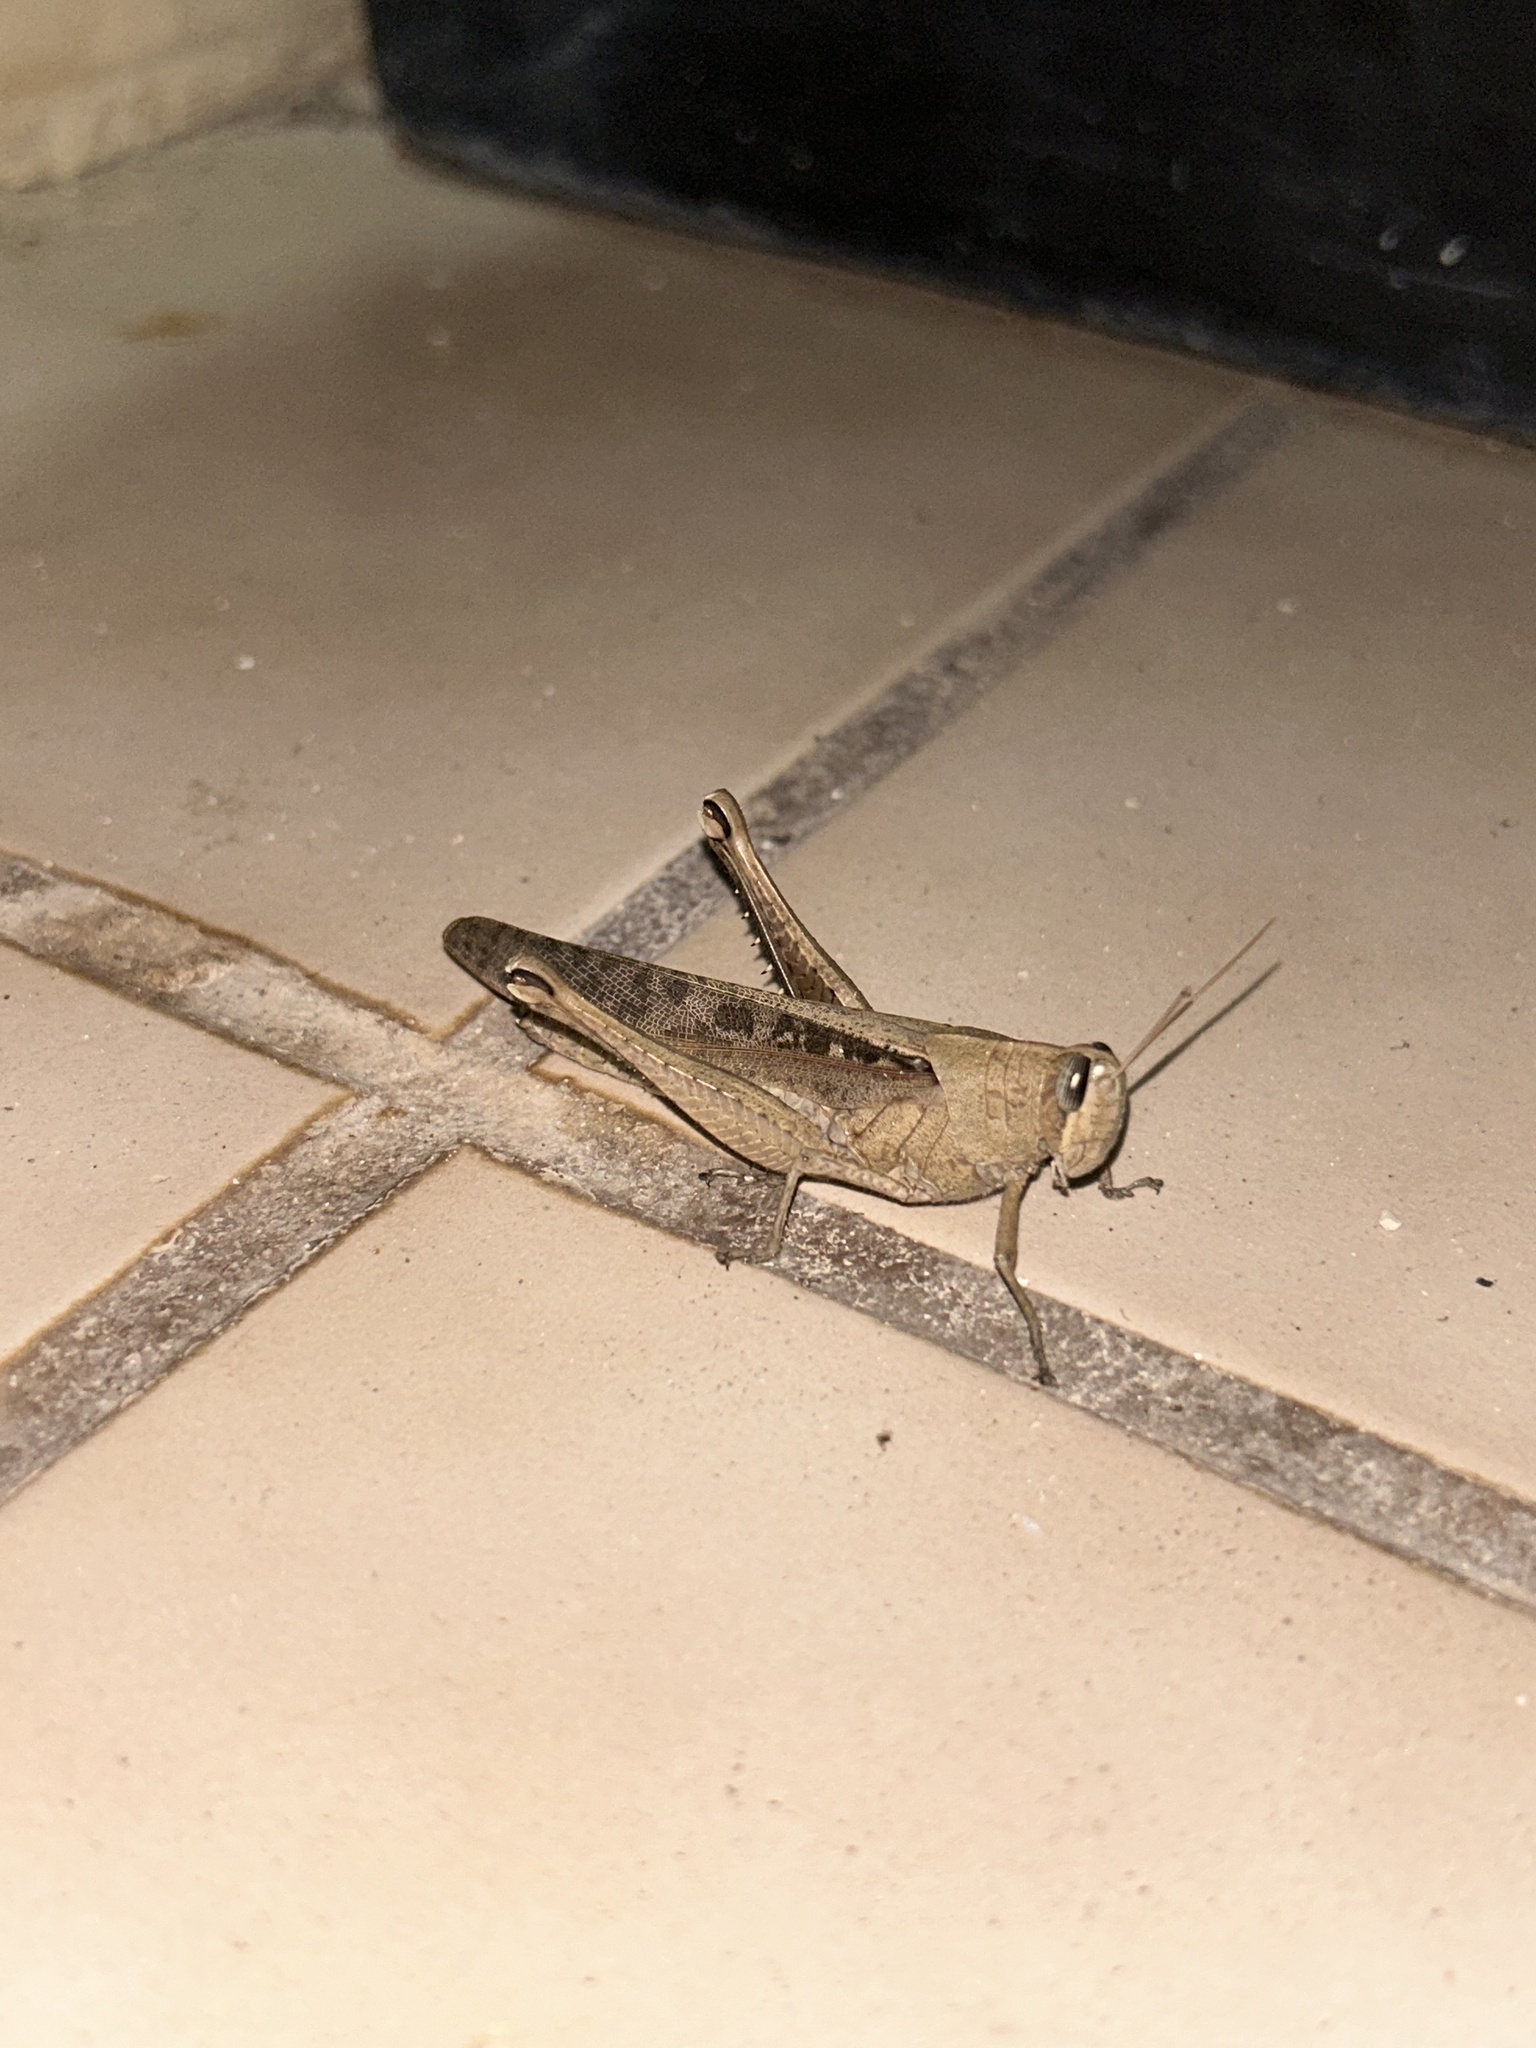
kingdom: Animalia
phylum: Arthropoda
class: Insecta
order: Orthoptera
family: Acrididae
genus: Schistocerca
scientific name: Schistocerca nitens
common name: Vagrant grasshopper
